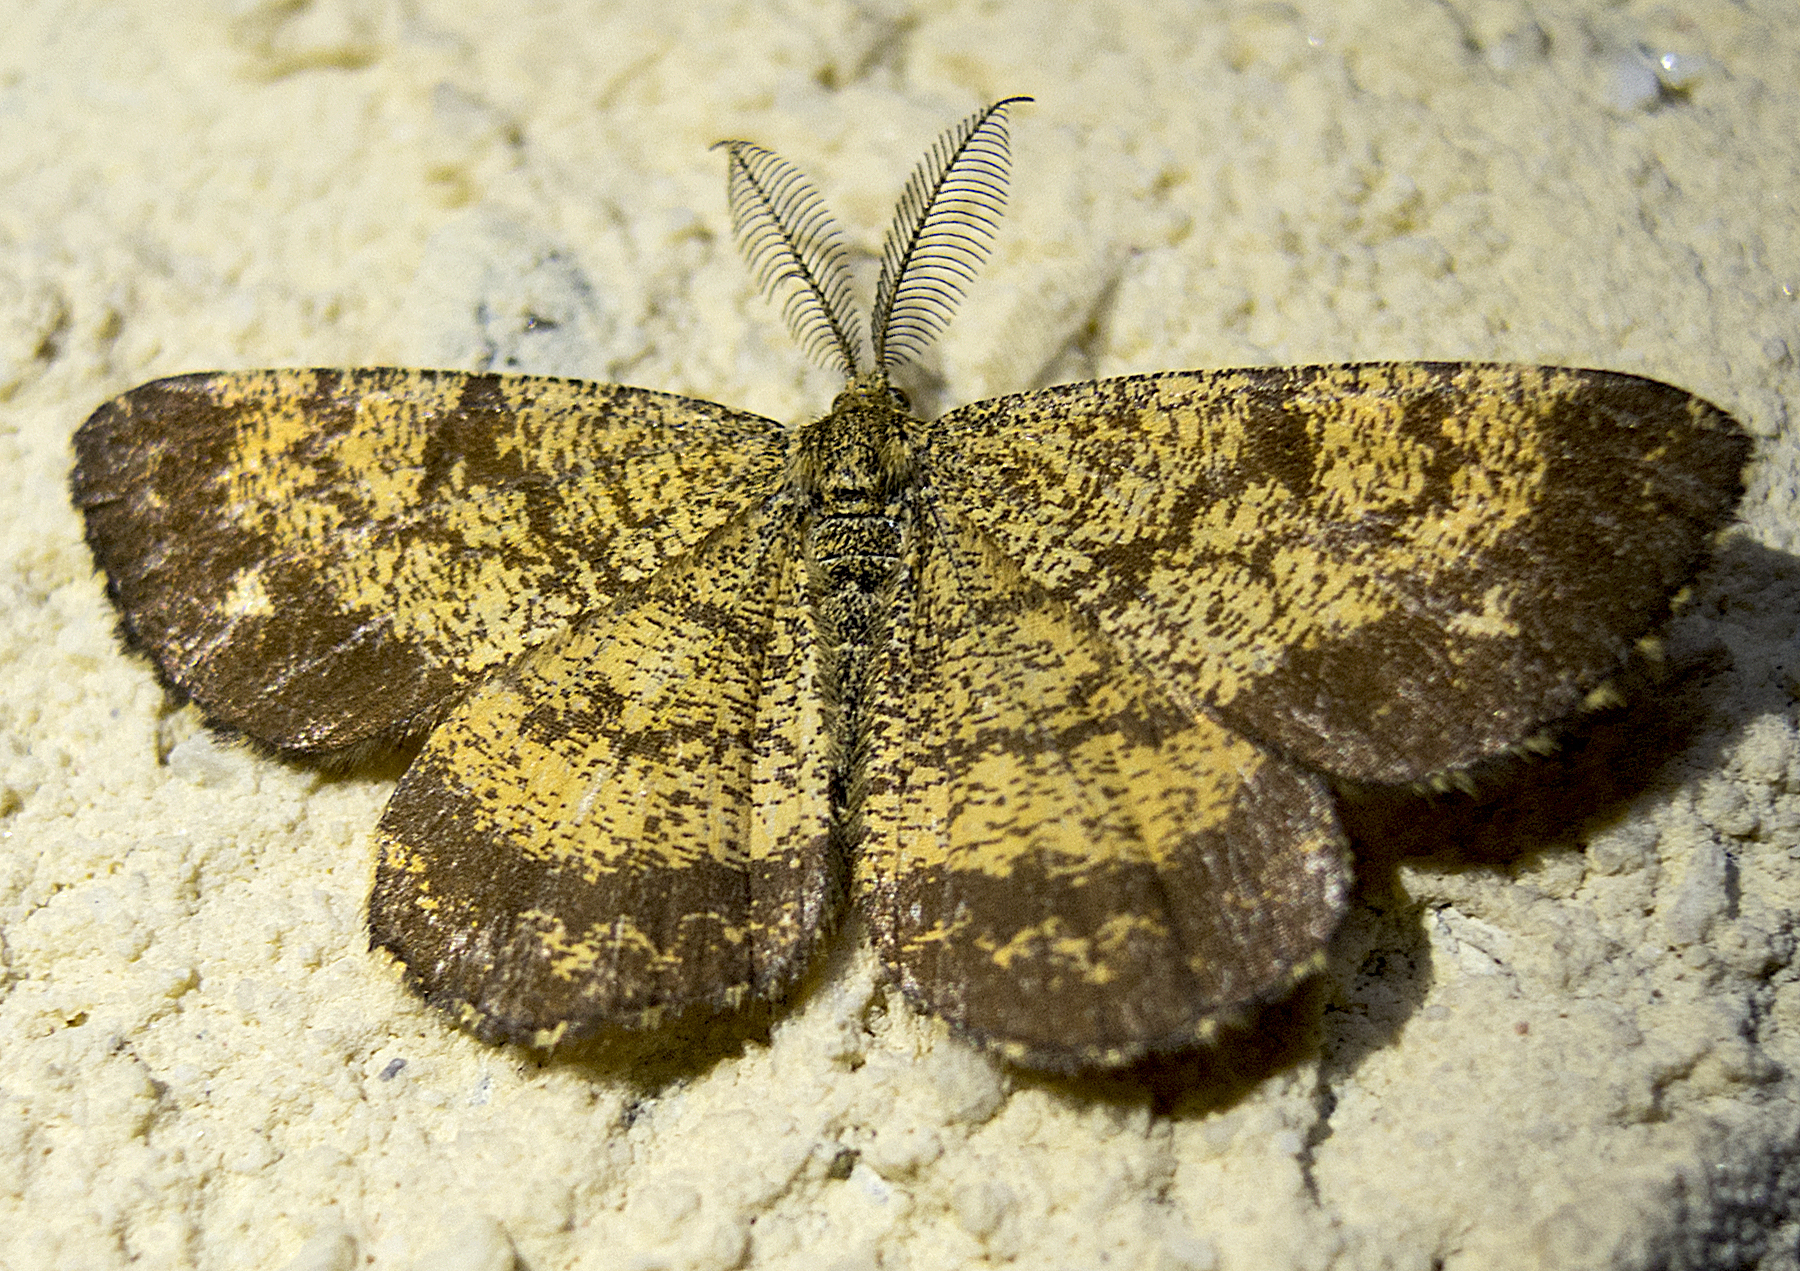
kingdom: Animalia
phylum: Arthropoda
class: Insecta
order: Lepidoptera
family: Geometridae
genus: Ematurga
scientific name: Ematurga atomaria
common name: Common heath
